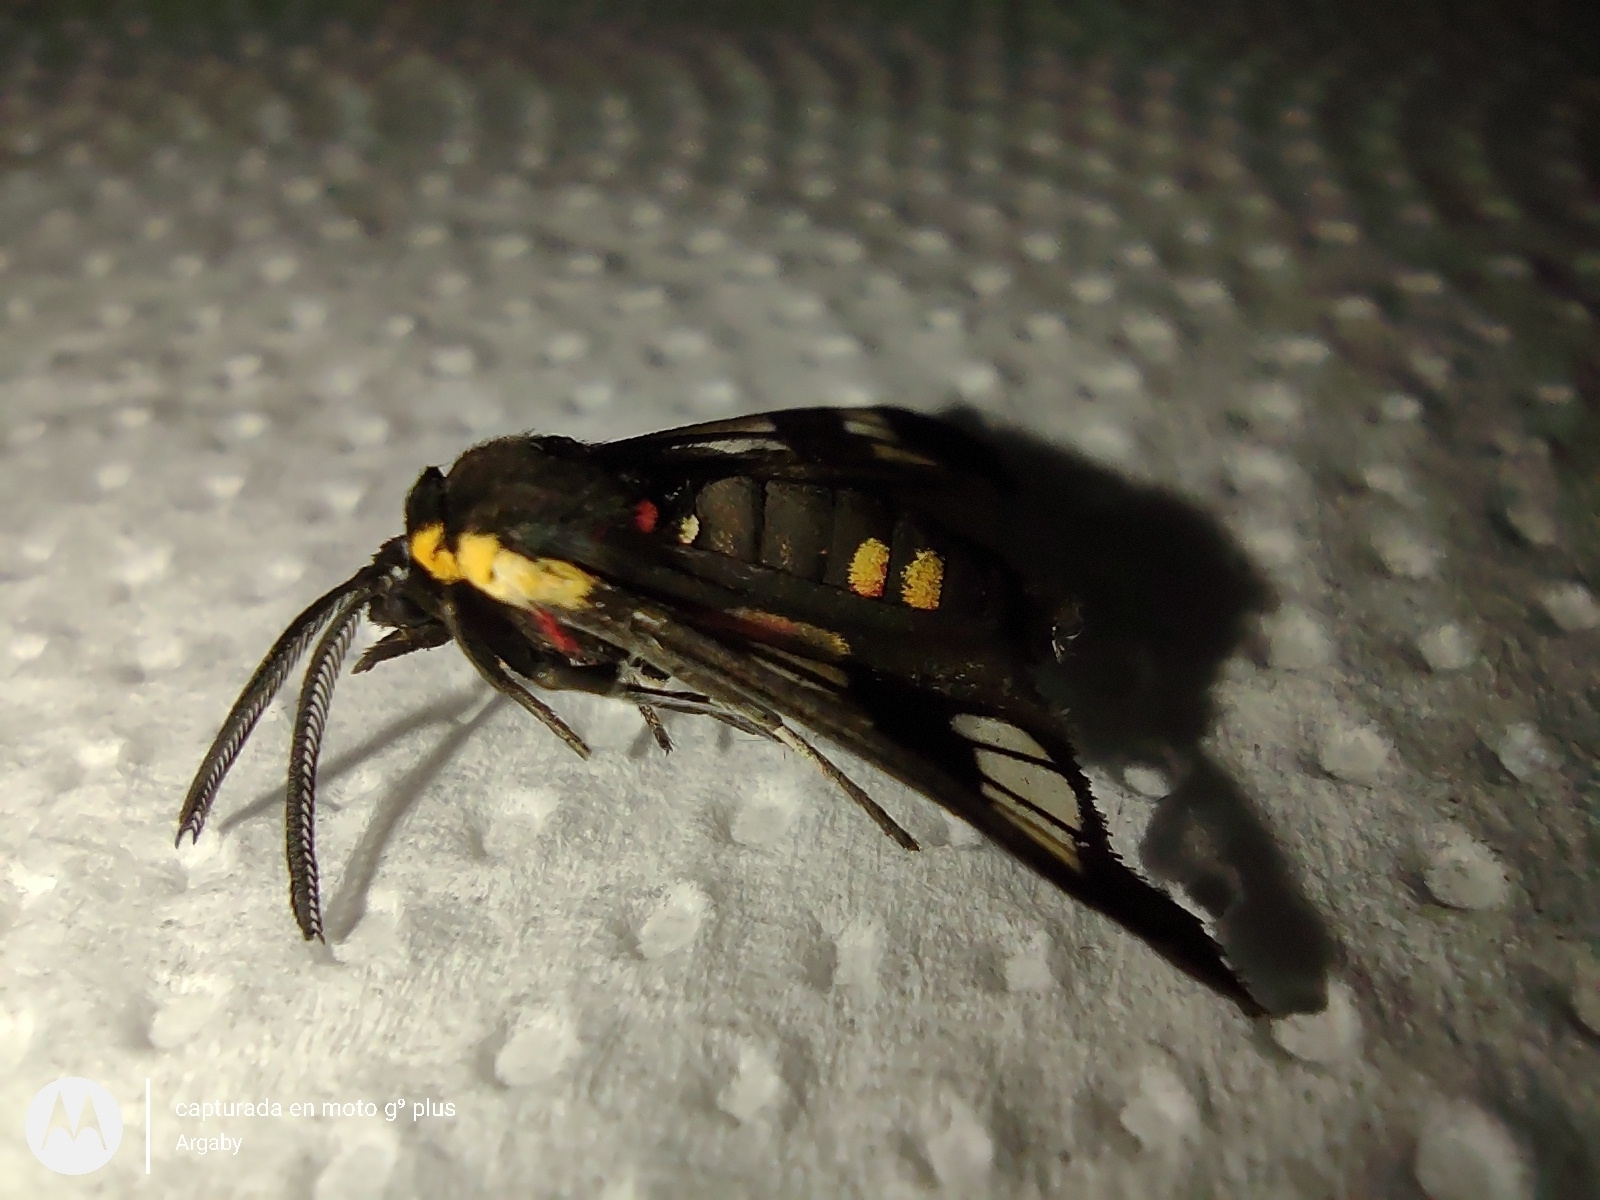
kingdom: Animalia
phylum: Arthropoda
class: Insecta
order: Lepidoptera
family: Erebidae
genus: Eurata
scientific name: Eurata hermione
